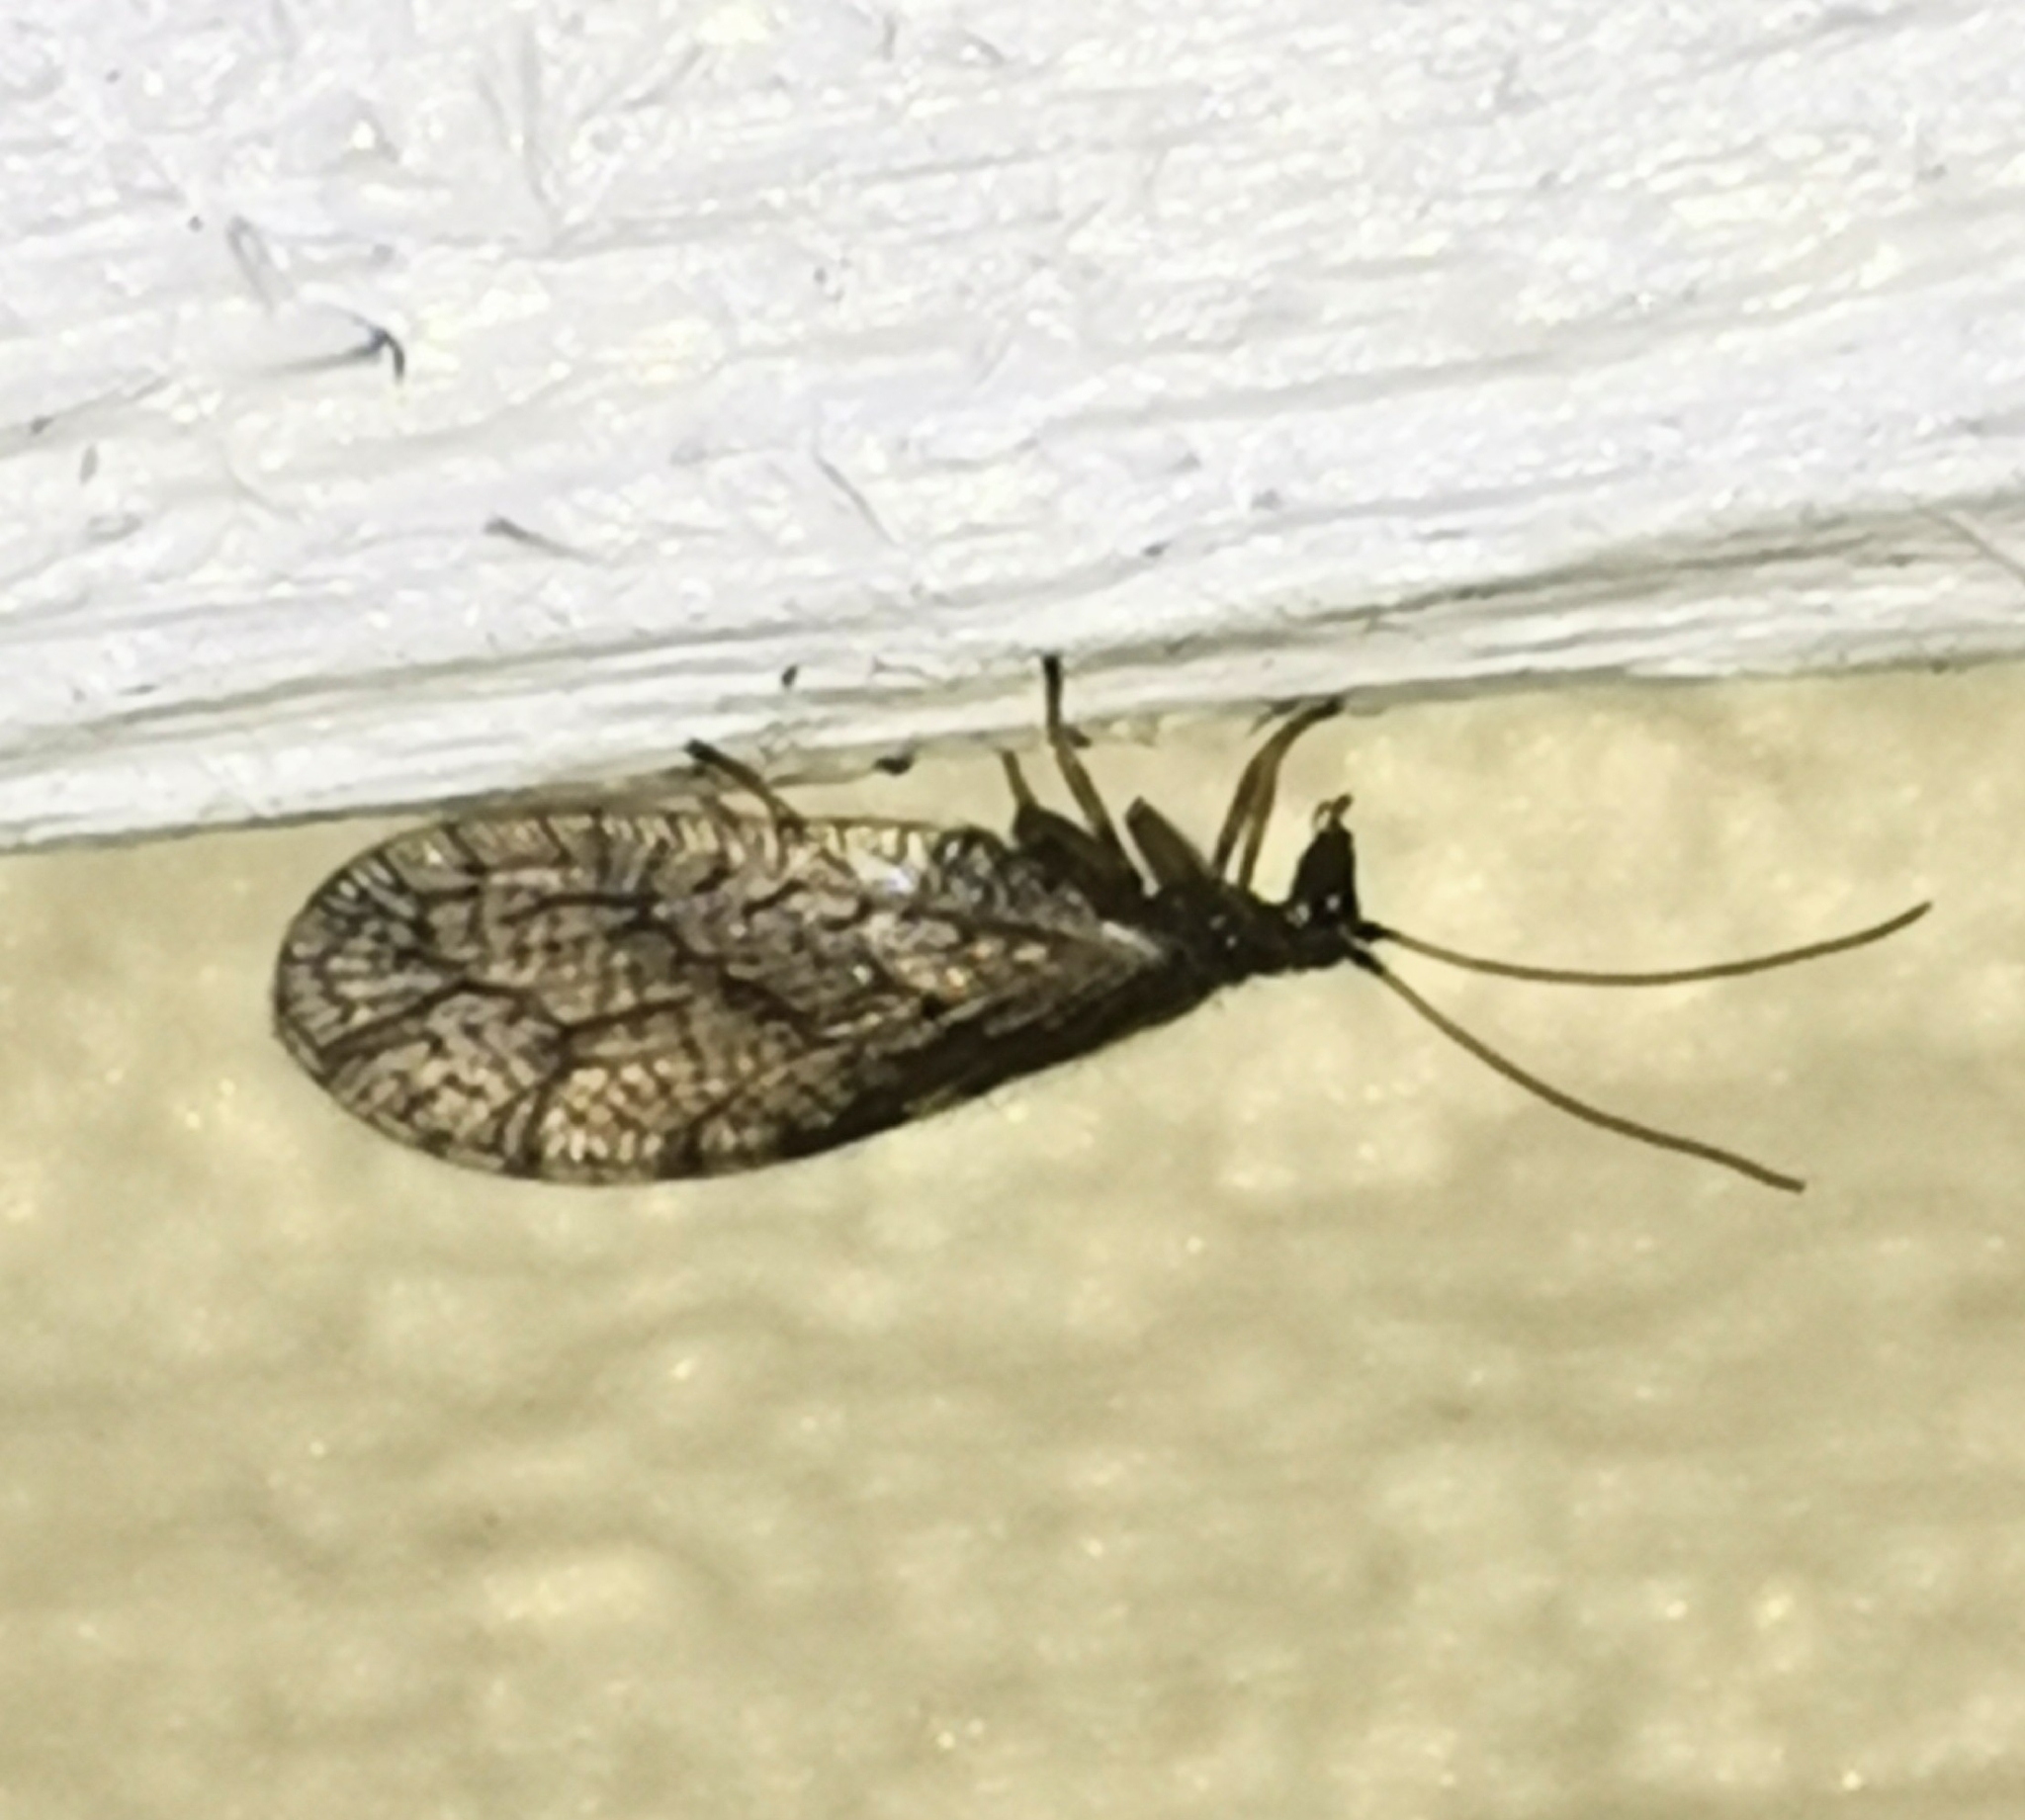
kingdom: Animalia
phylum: Arthropoda
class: Insecta
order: Neuroptera
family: Hemerobiidae
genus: Micromus
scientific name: Micromus angulatus
